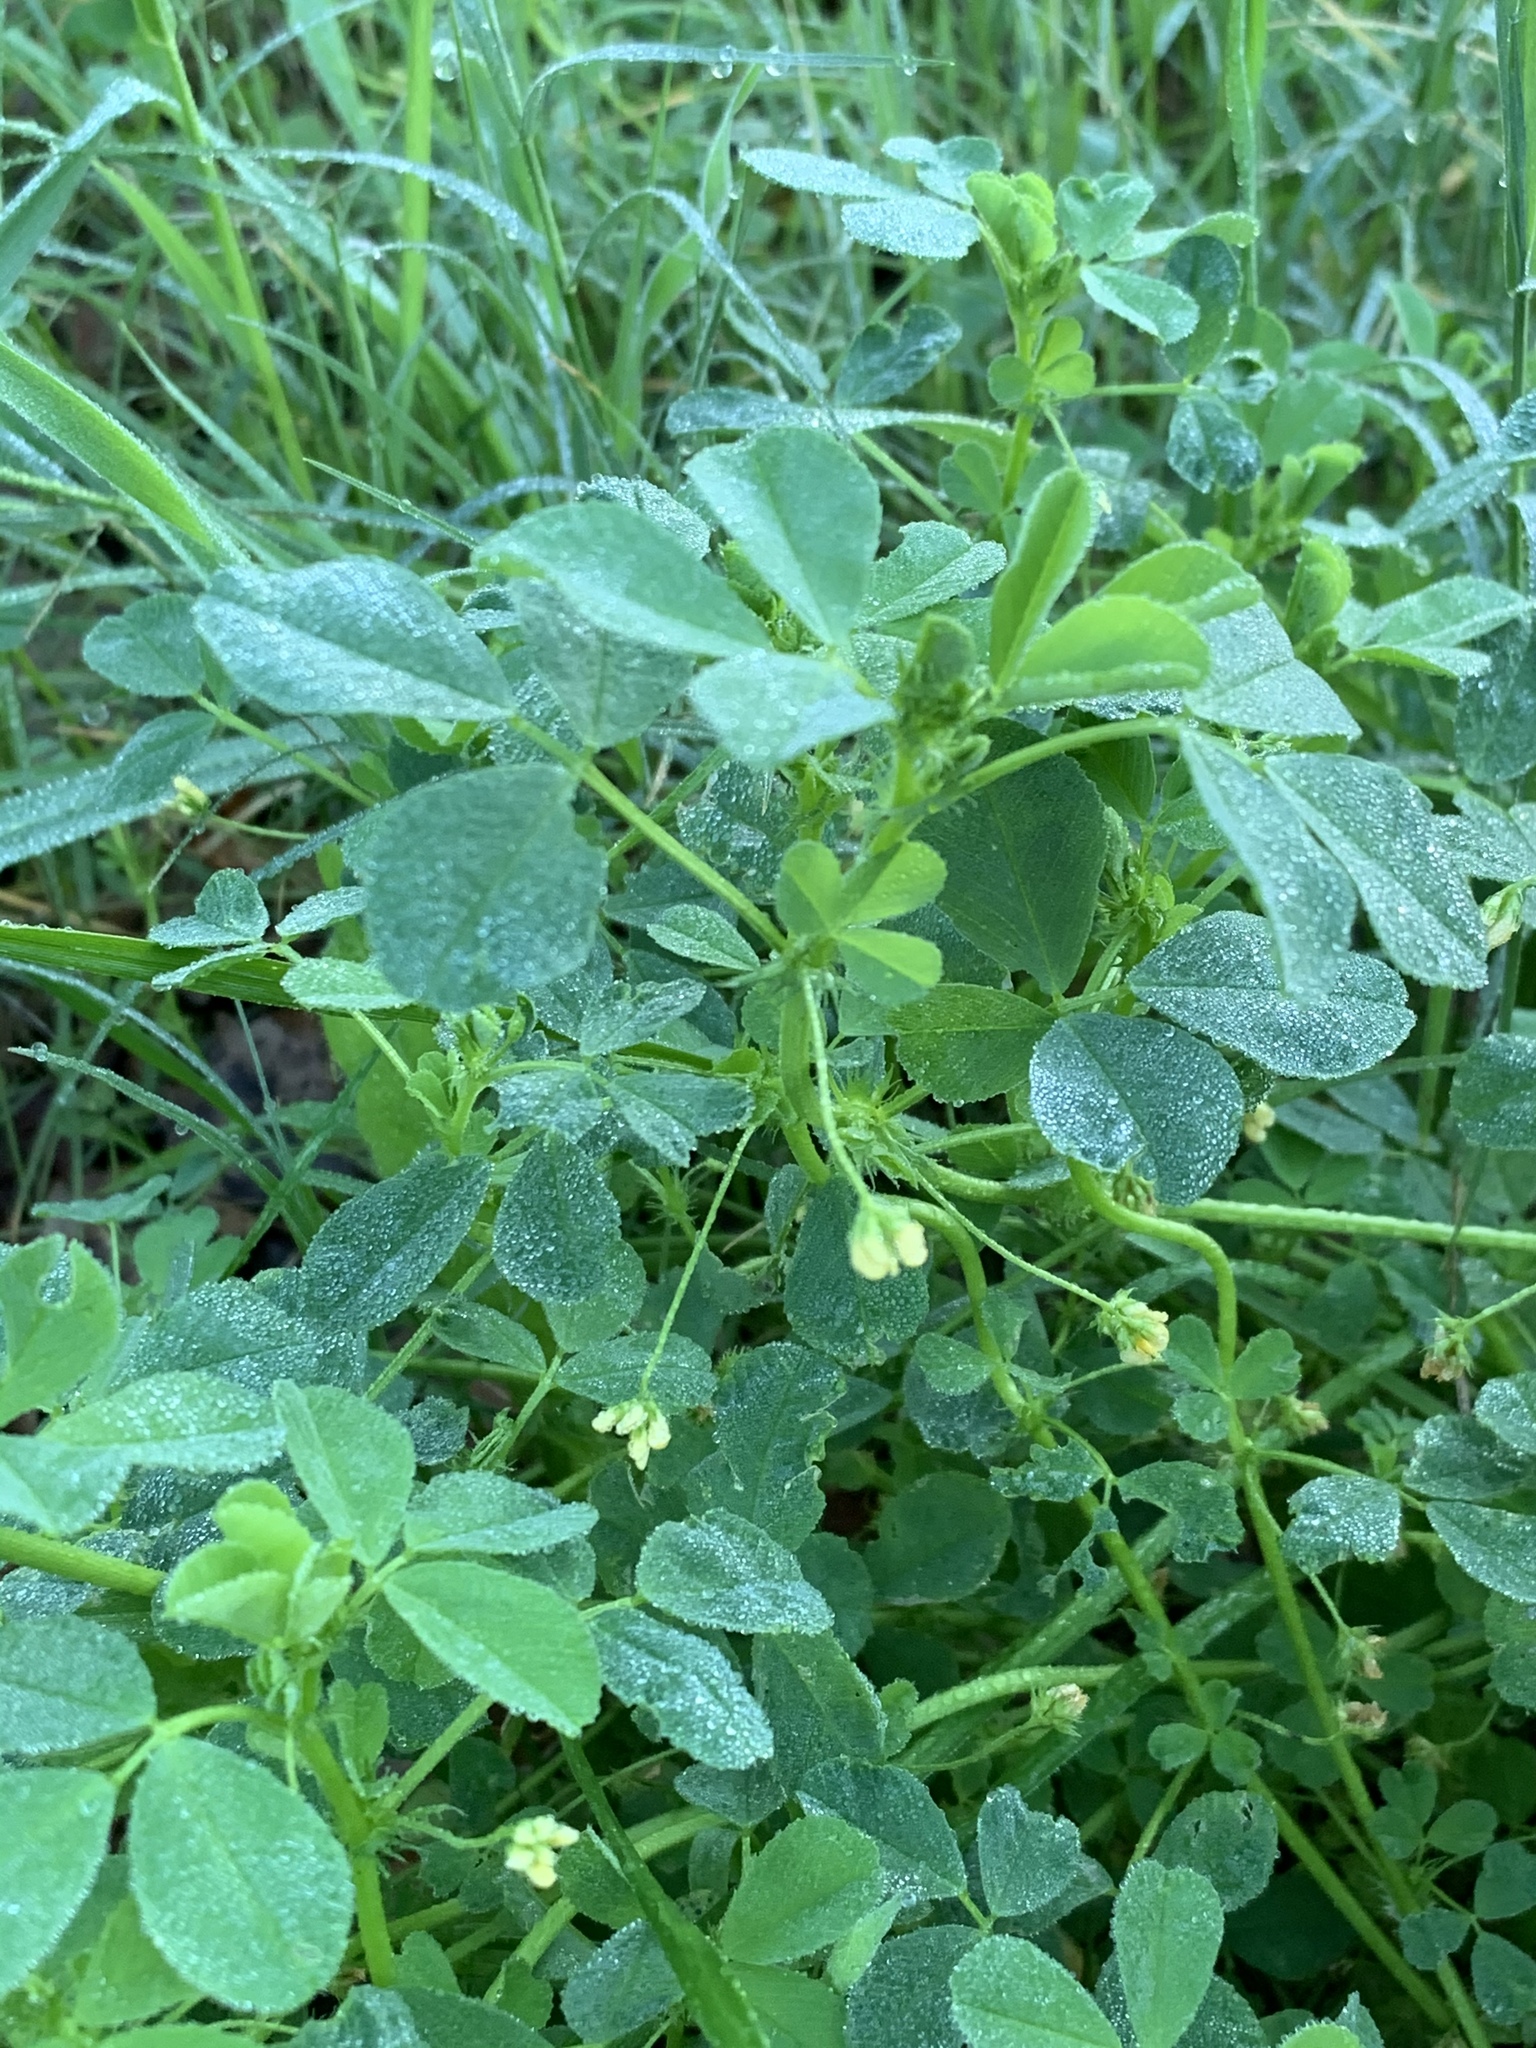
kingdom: Plantae
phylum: Tracheophyta
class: Magnoliopsida
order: Fabales
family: Fabaceae
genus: Medicago
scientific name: Medicago polymorpha
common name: Burclover
